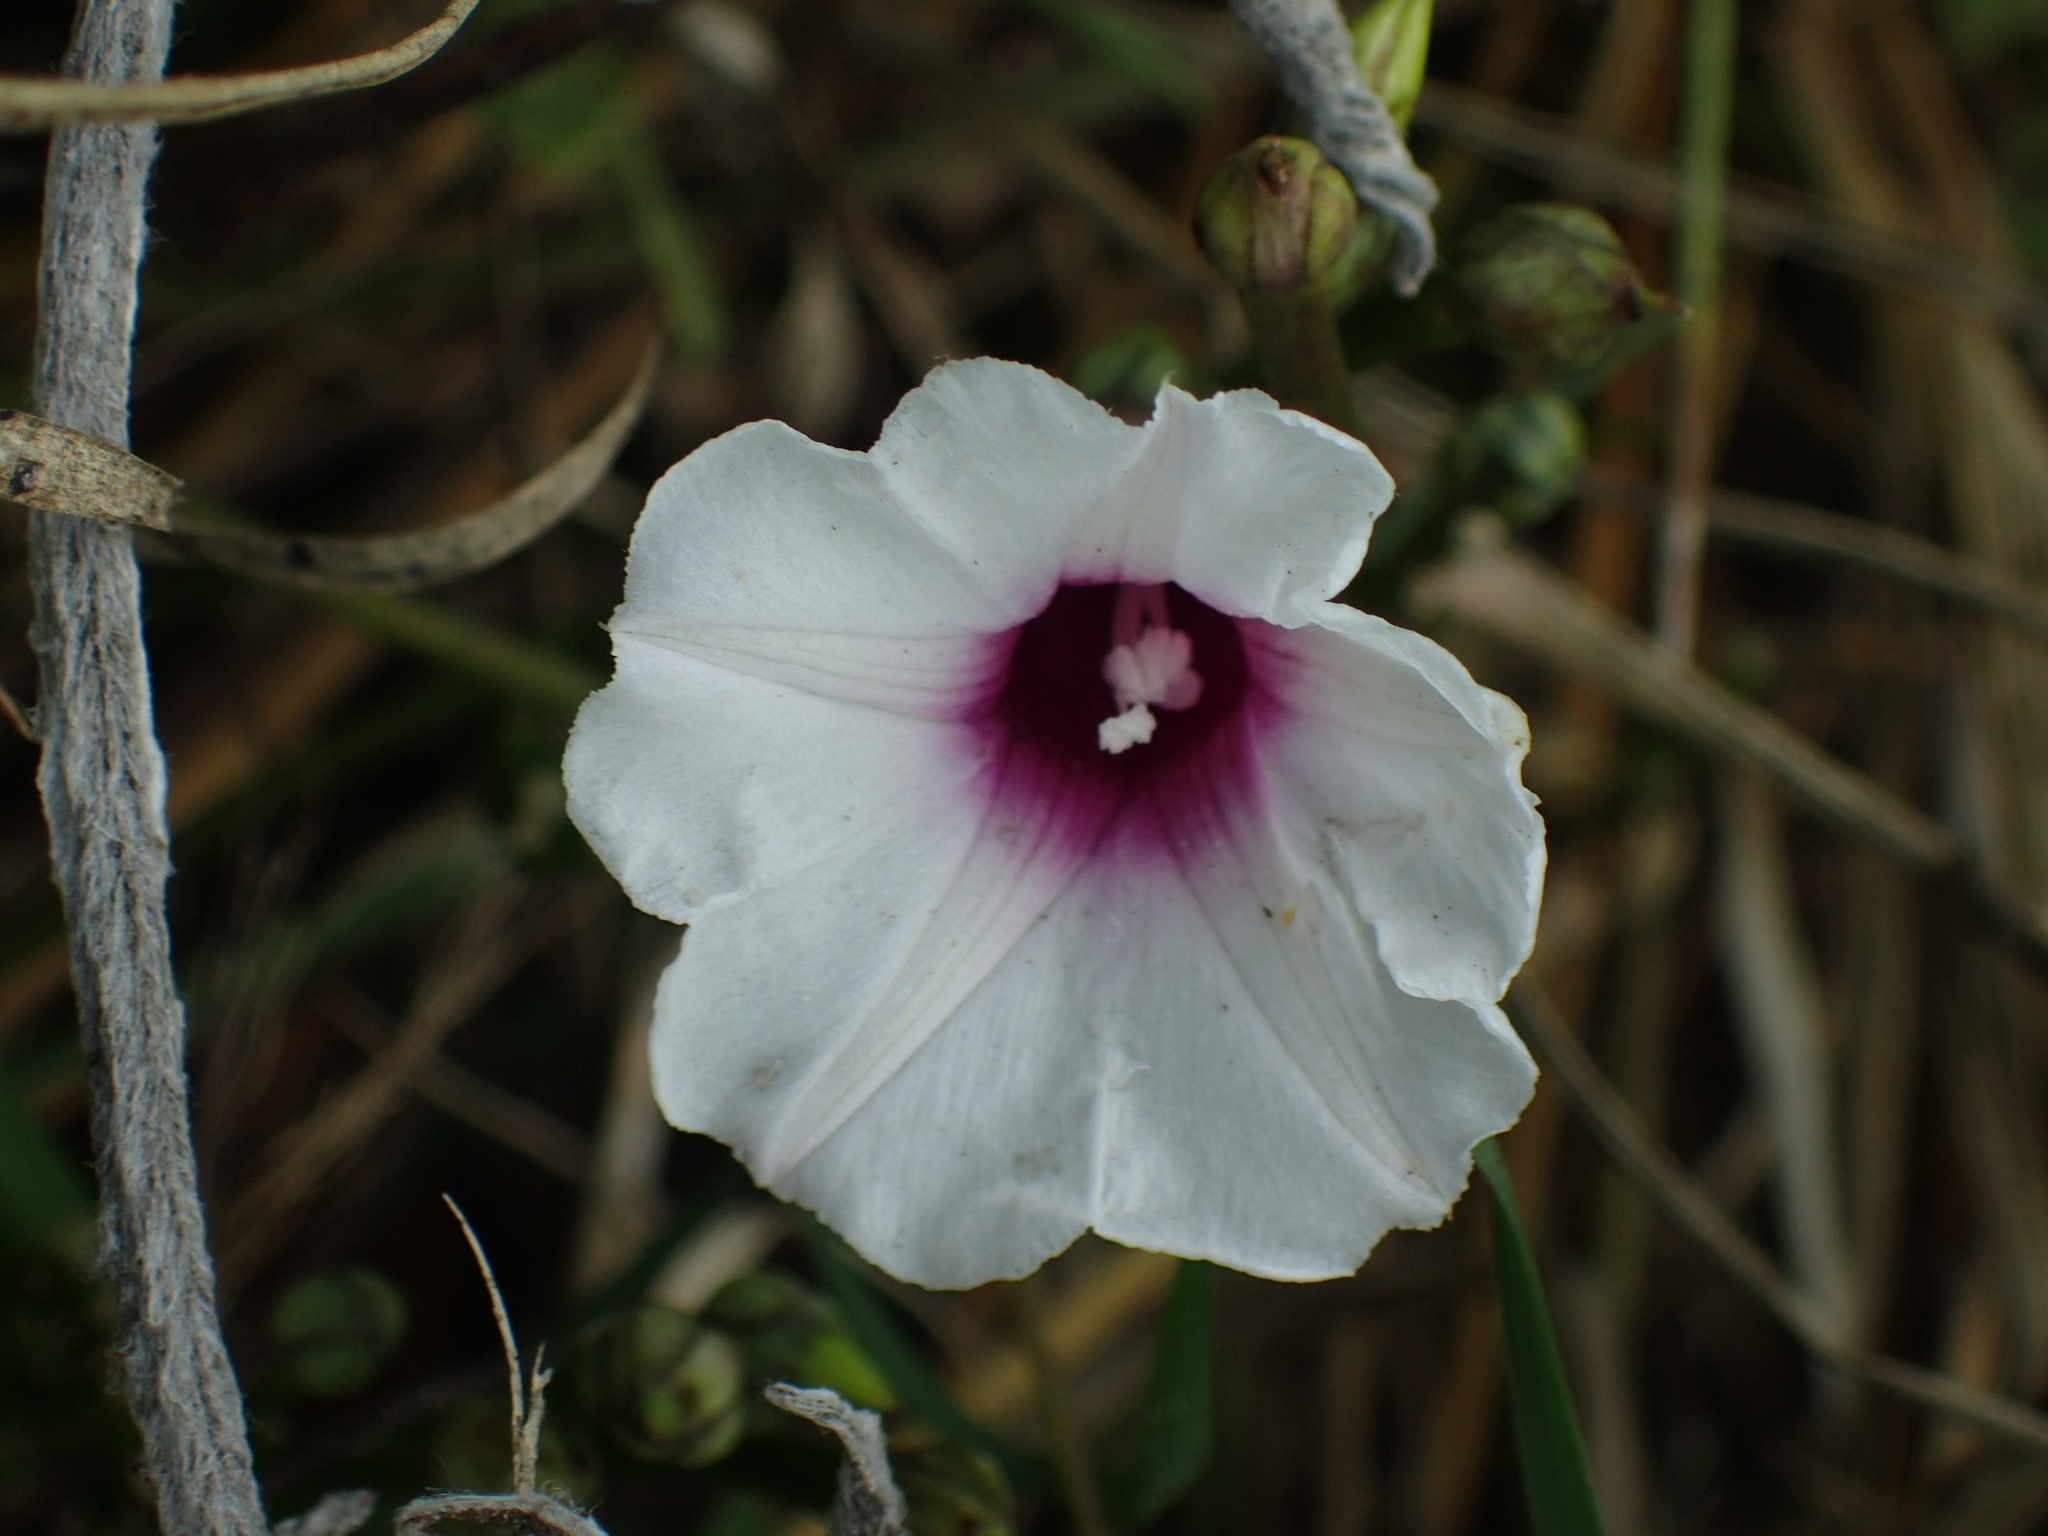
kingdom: Plantae
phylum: Tracheophyta
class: Magnoliopsida
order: Solanales
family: Convolvulaceae
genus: Ipomoea
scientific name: Ipomoea amnicola
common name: Redcenter morning-glory
